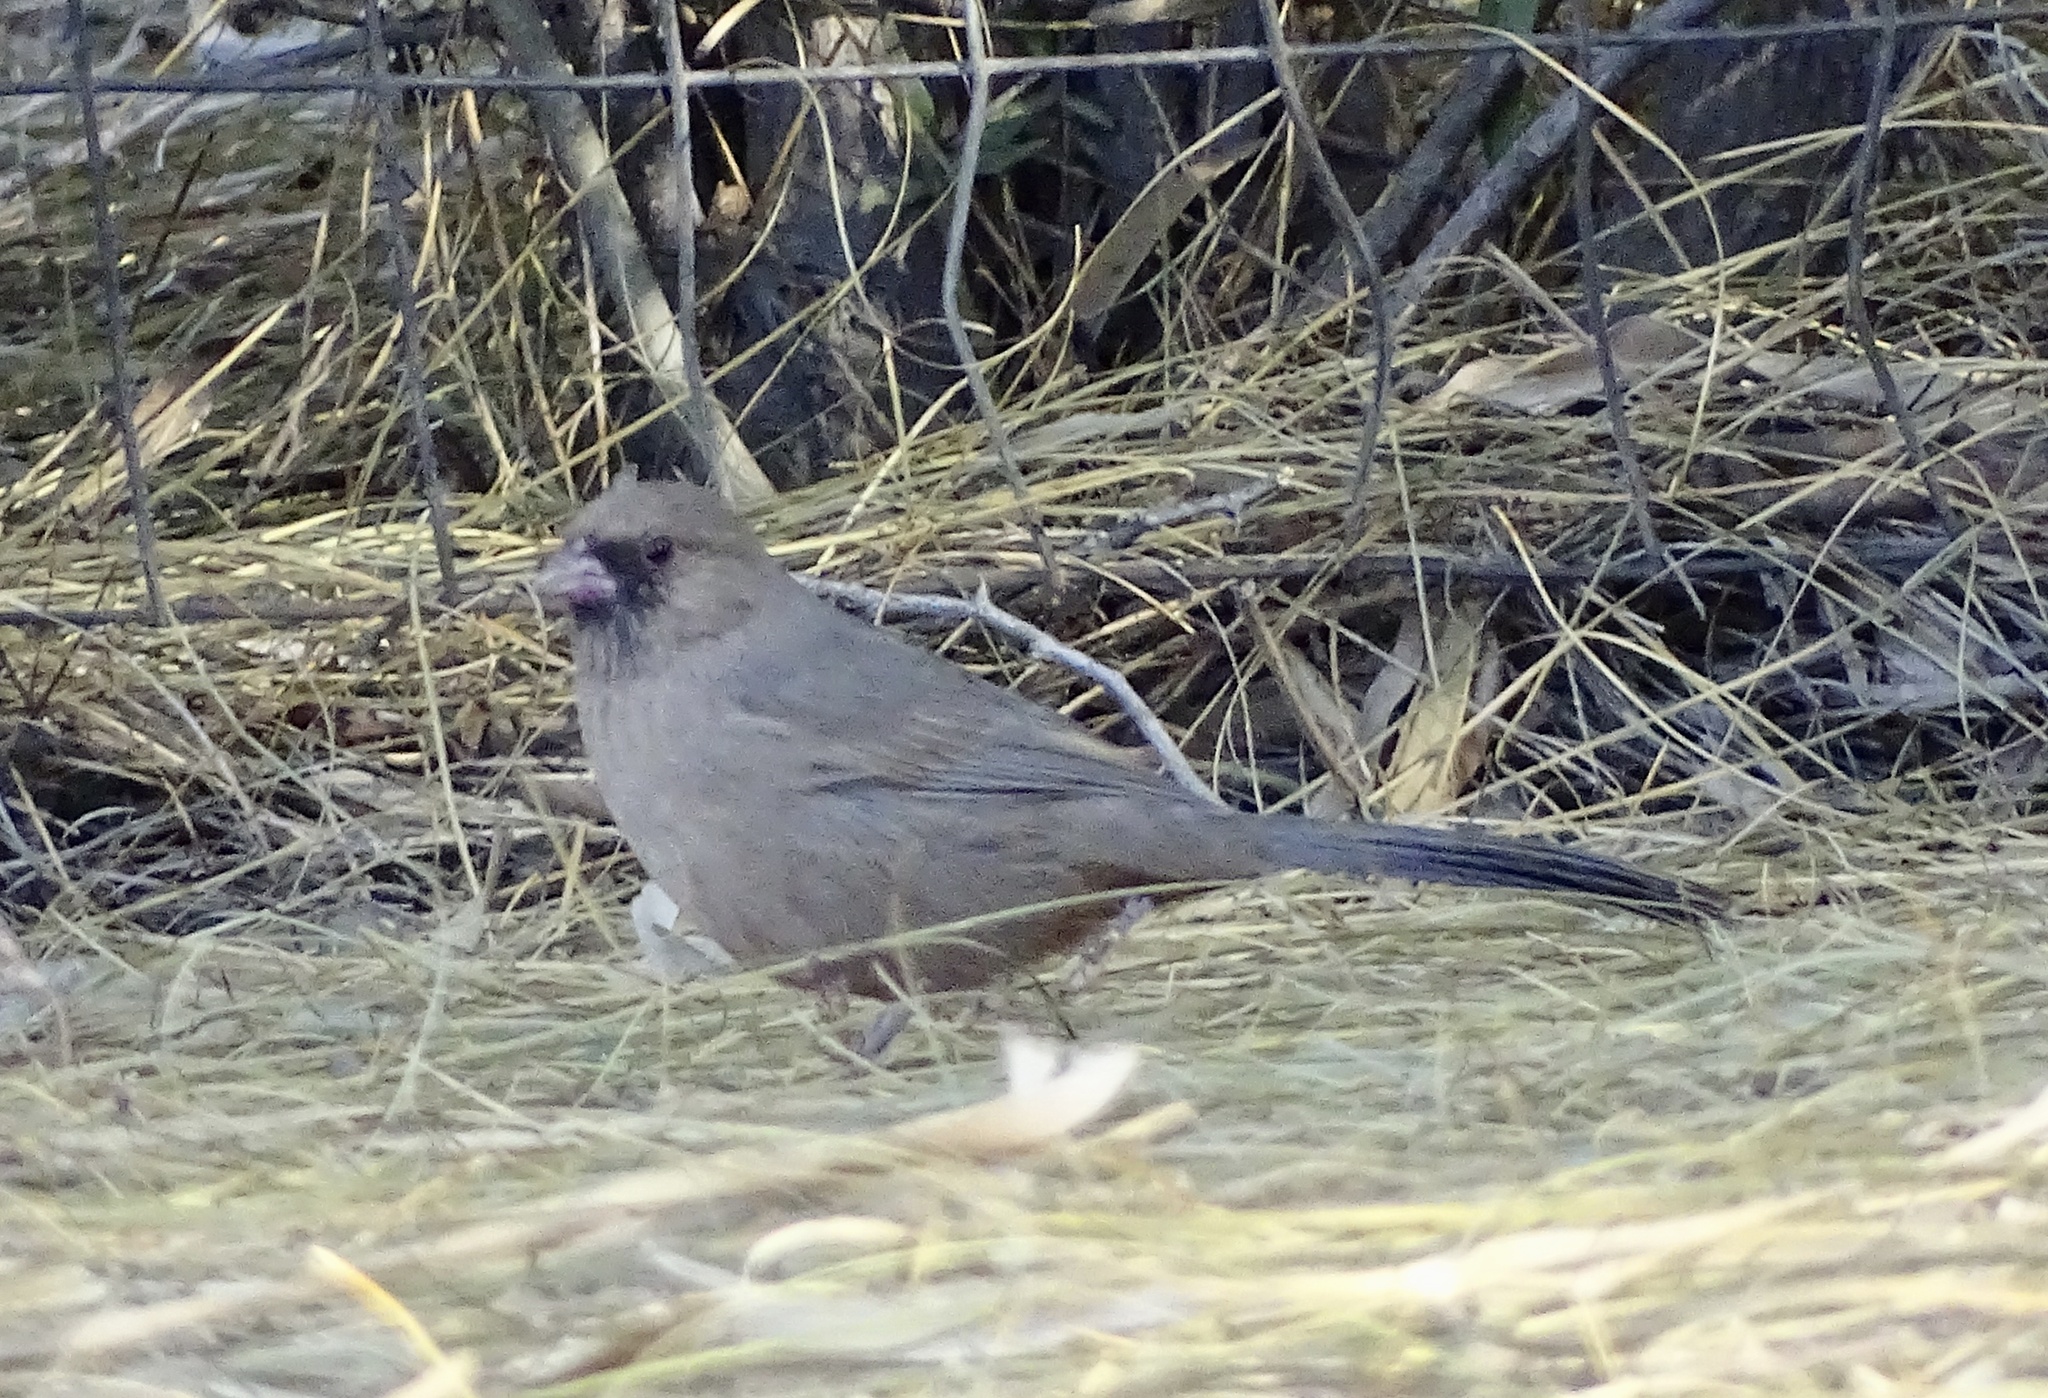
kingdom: Animalia
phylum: Chordata
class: Aves
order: Passeriformes
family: Passerellidae
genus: Melozone
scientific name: Melozone aberti
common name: Abert's towhee
